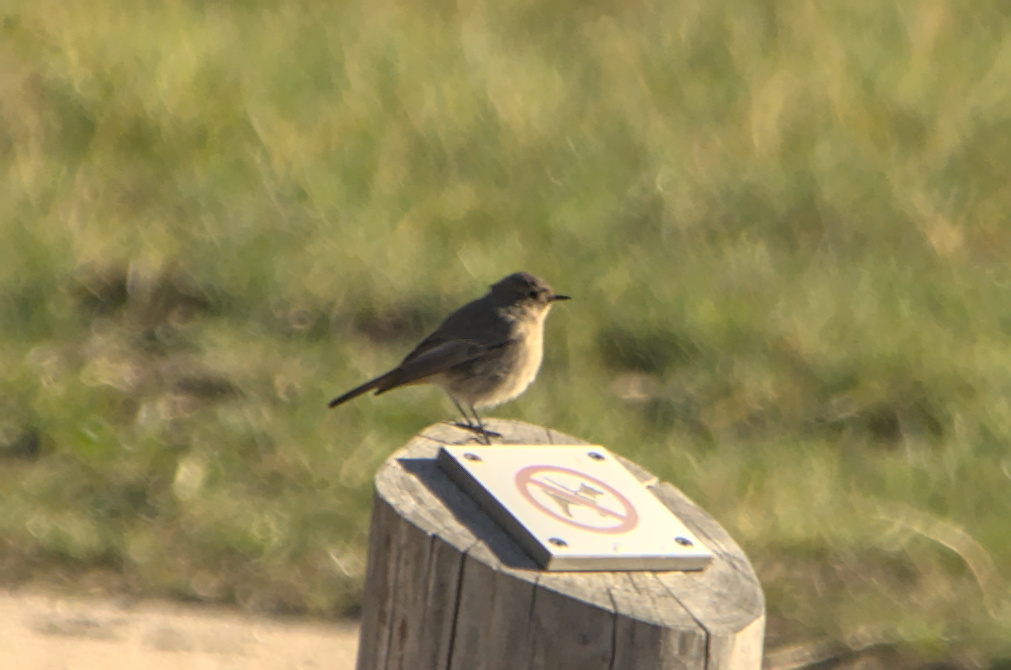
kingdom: Animalia
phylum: Chordata
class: Aves
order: Passeriformes
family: Muscicapidae
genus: Phoenicurus
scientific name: Phoenicurus ochruros
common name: Black redstart
